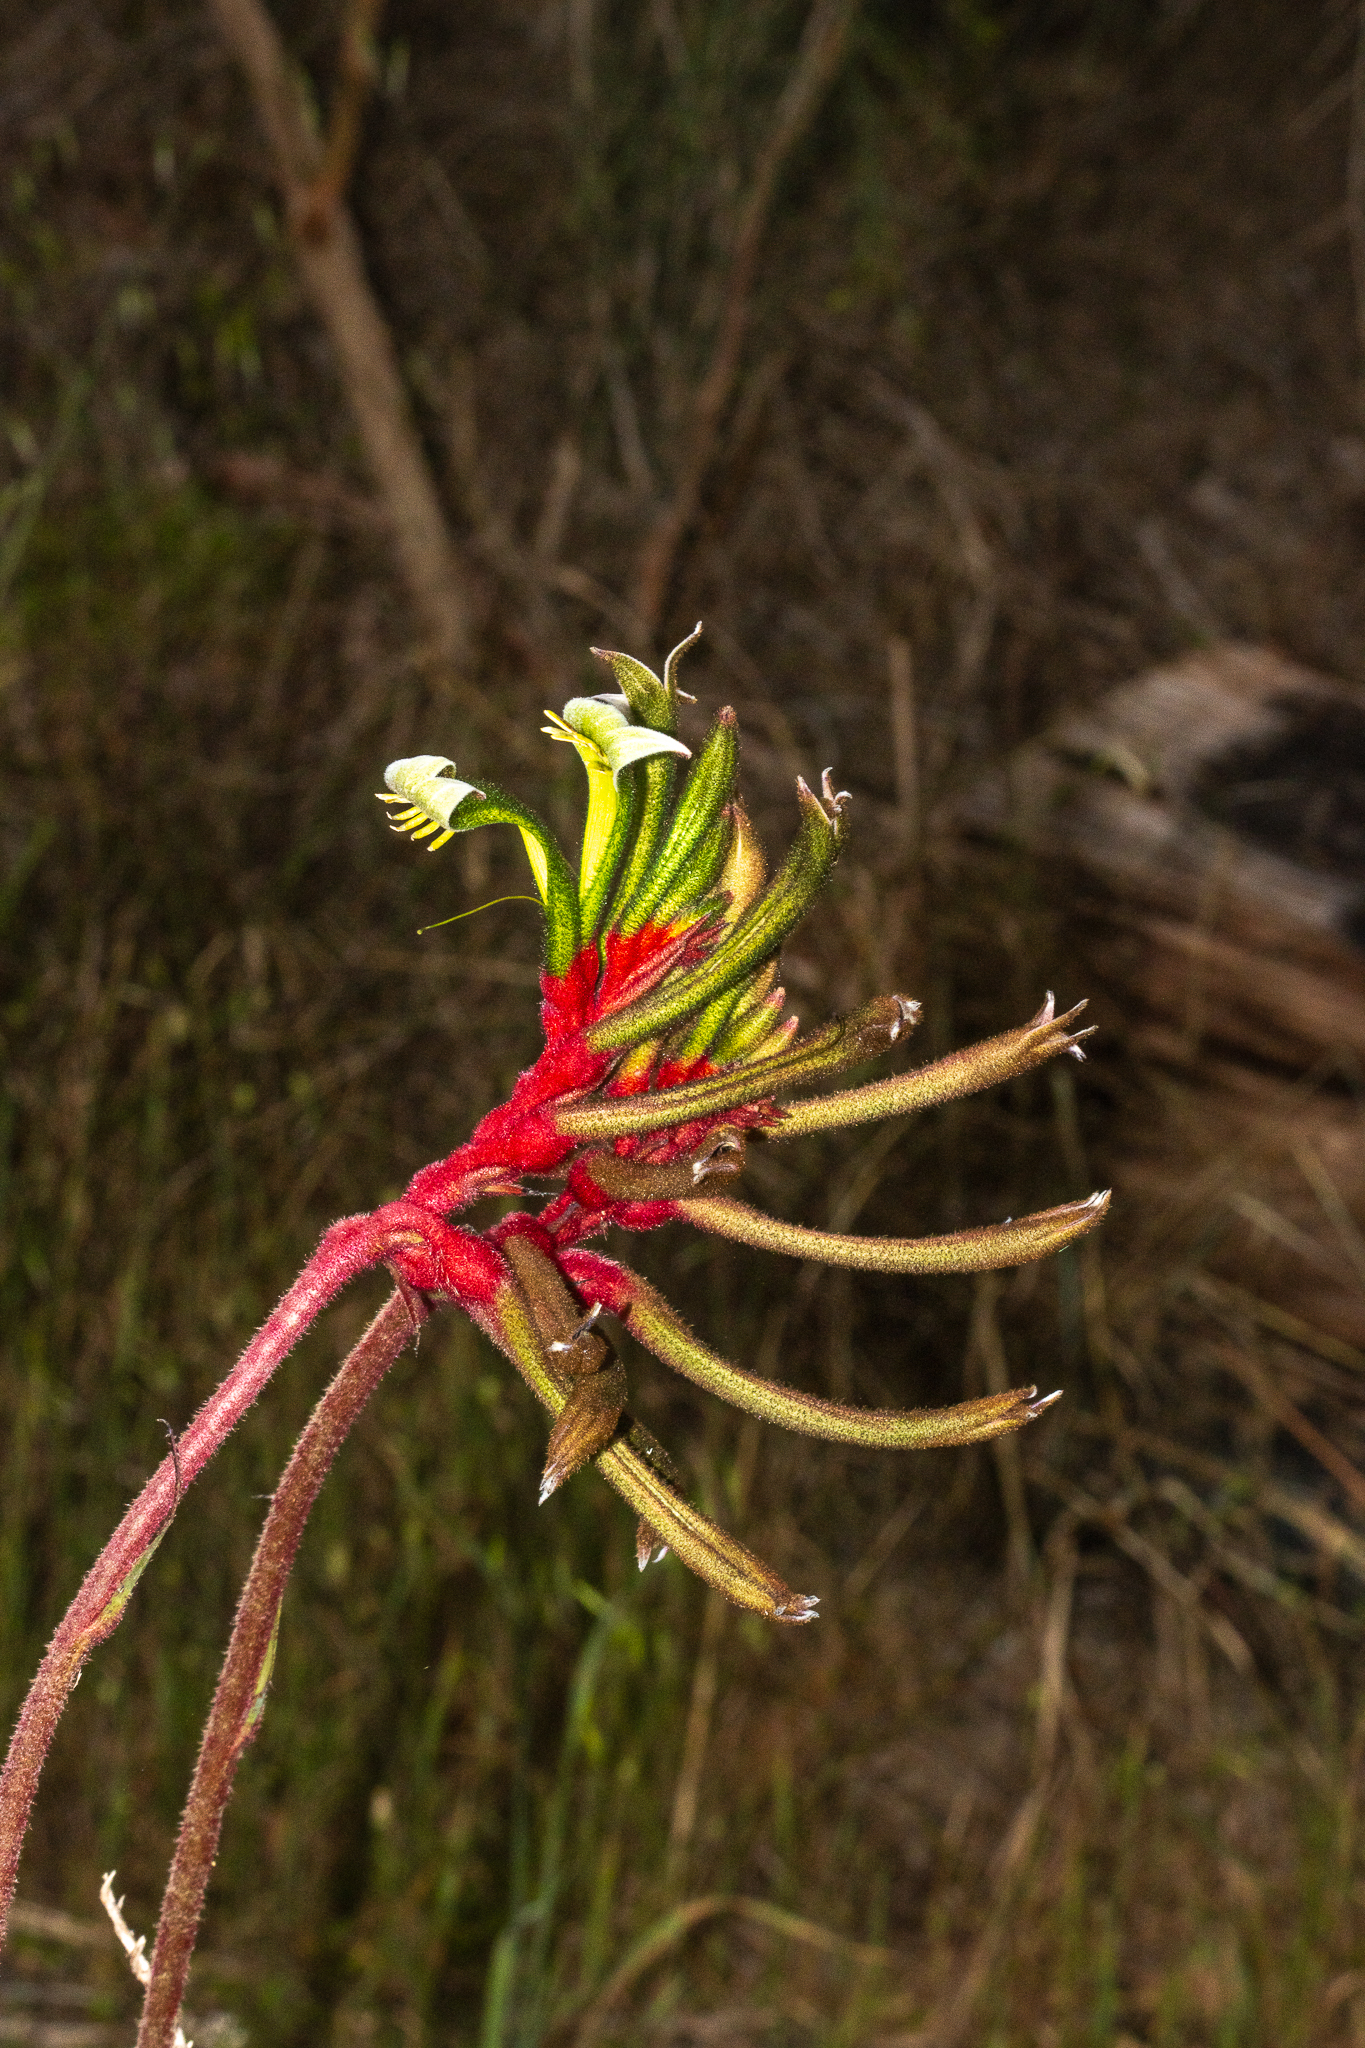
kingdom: Plantae
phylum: Tracheophyta
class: Liliopsida
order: Commelinales
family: Haemodoraceae
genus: Anigozanthos
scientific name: Anigozanthos manglesii
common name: Mangles's kangaroo-paw
